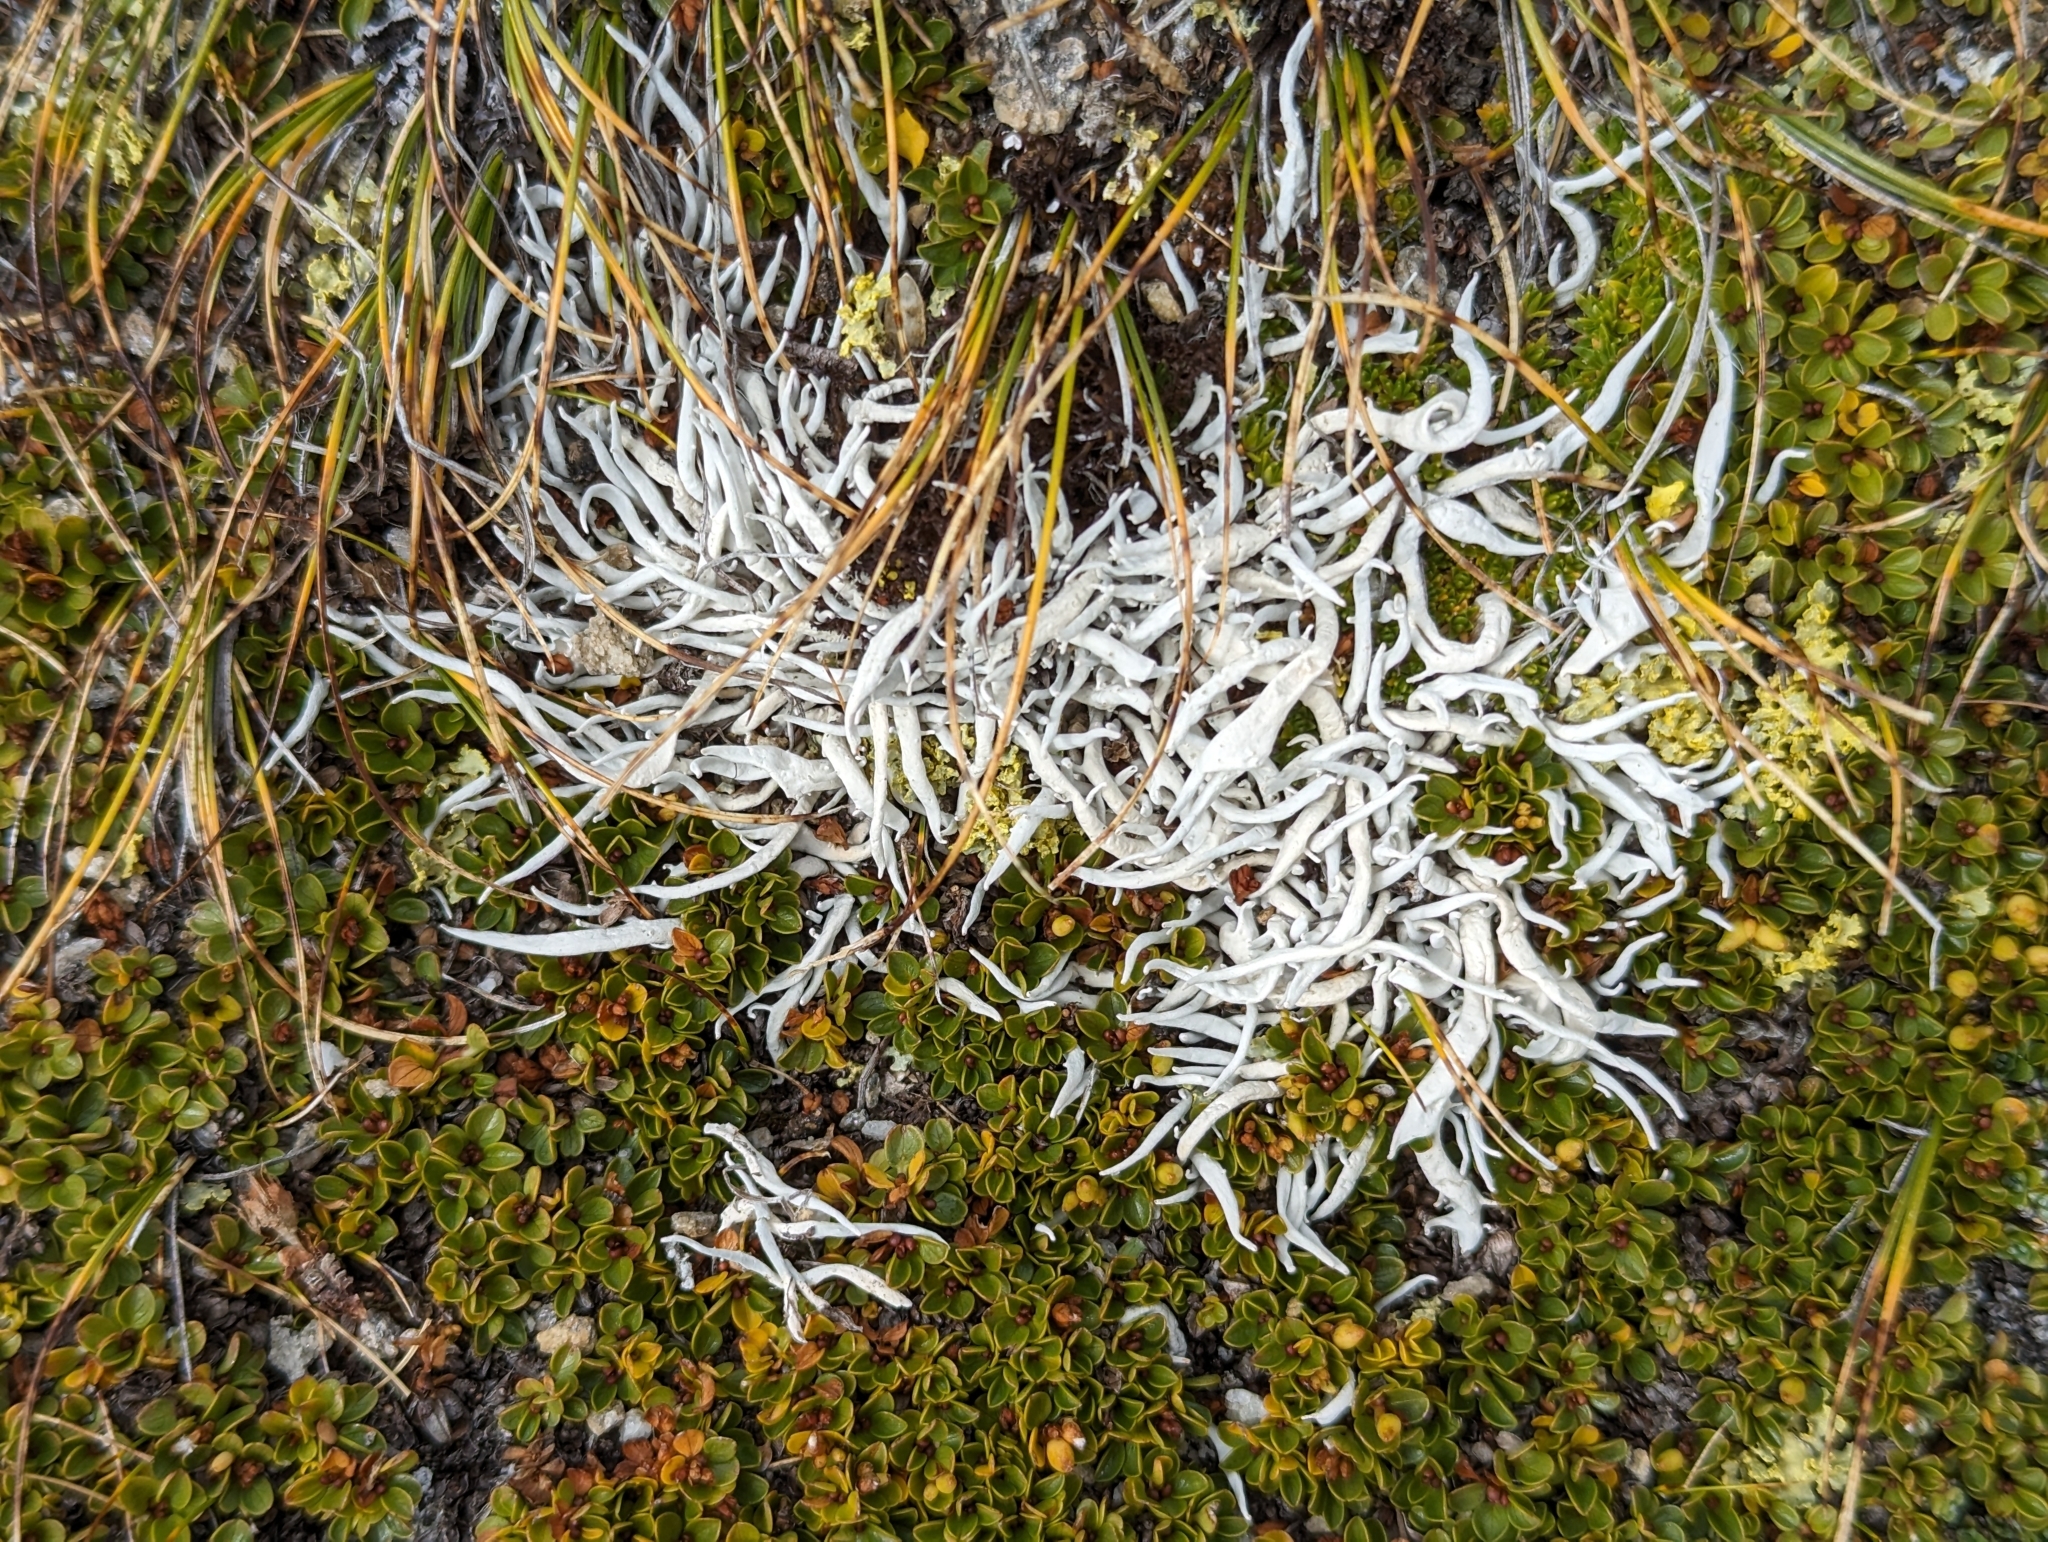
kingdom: Fungi
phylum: Ascomycota
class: Lecanoromycetes
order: Pertusariales
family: Icmadophilaceae
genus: Thamnolia
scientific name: Thamnolia vermicularis
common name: Whiteworm lichen
